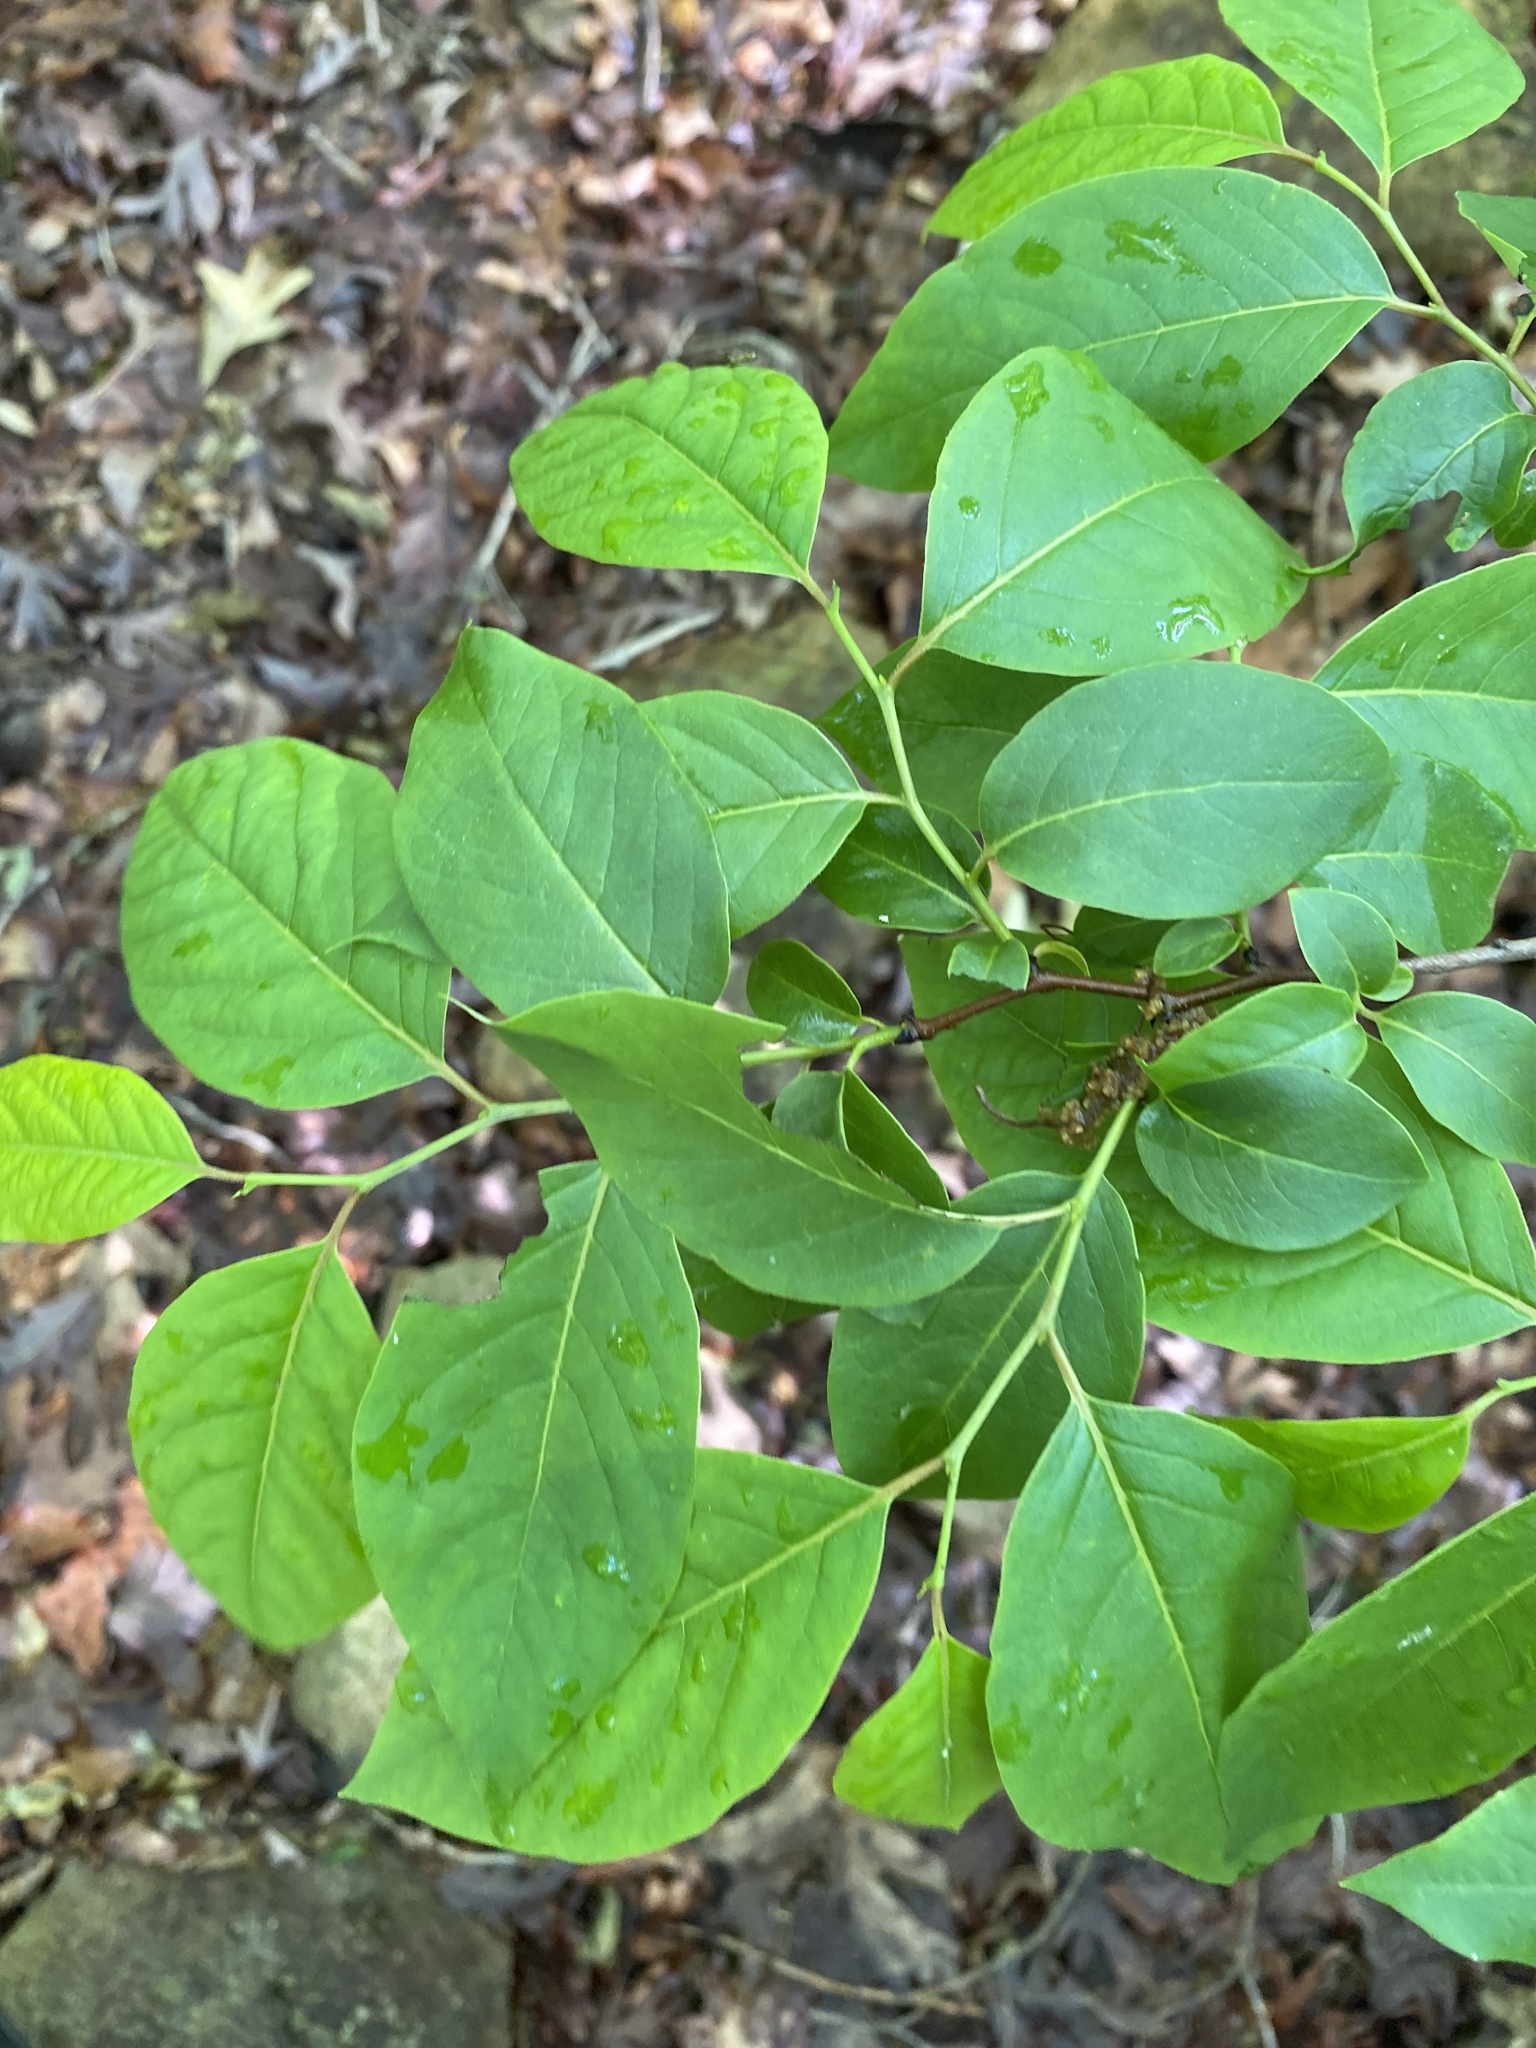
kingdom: Plantae
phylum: Tracheophyta
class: Magnoliopsida
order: Ericales
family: Ebenaceae
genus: Diospyros
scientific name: Diospyros virginiana
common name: Persimmon
